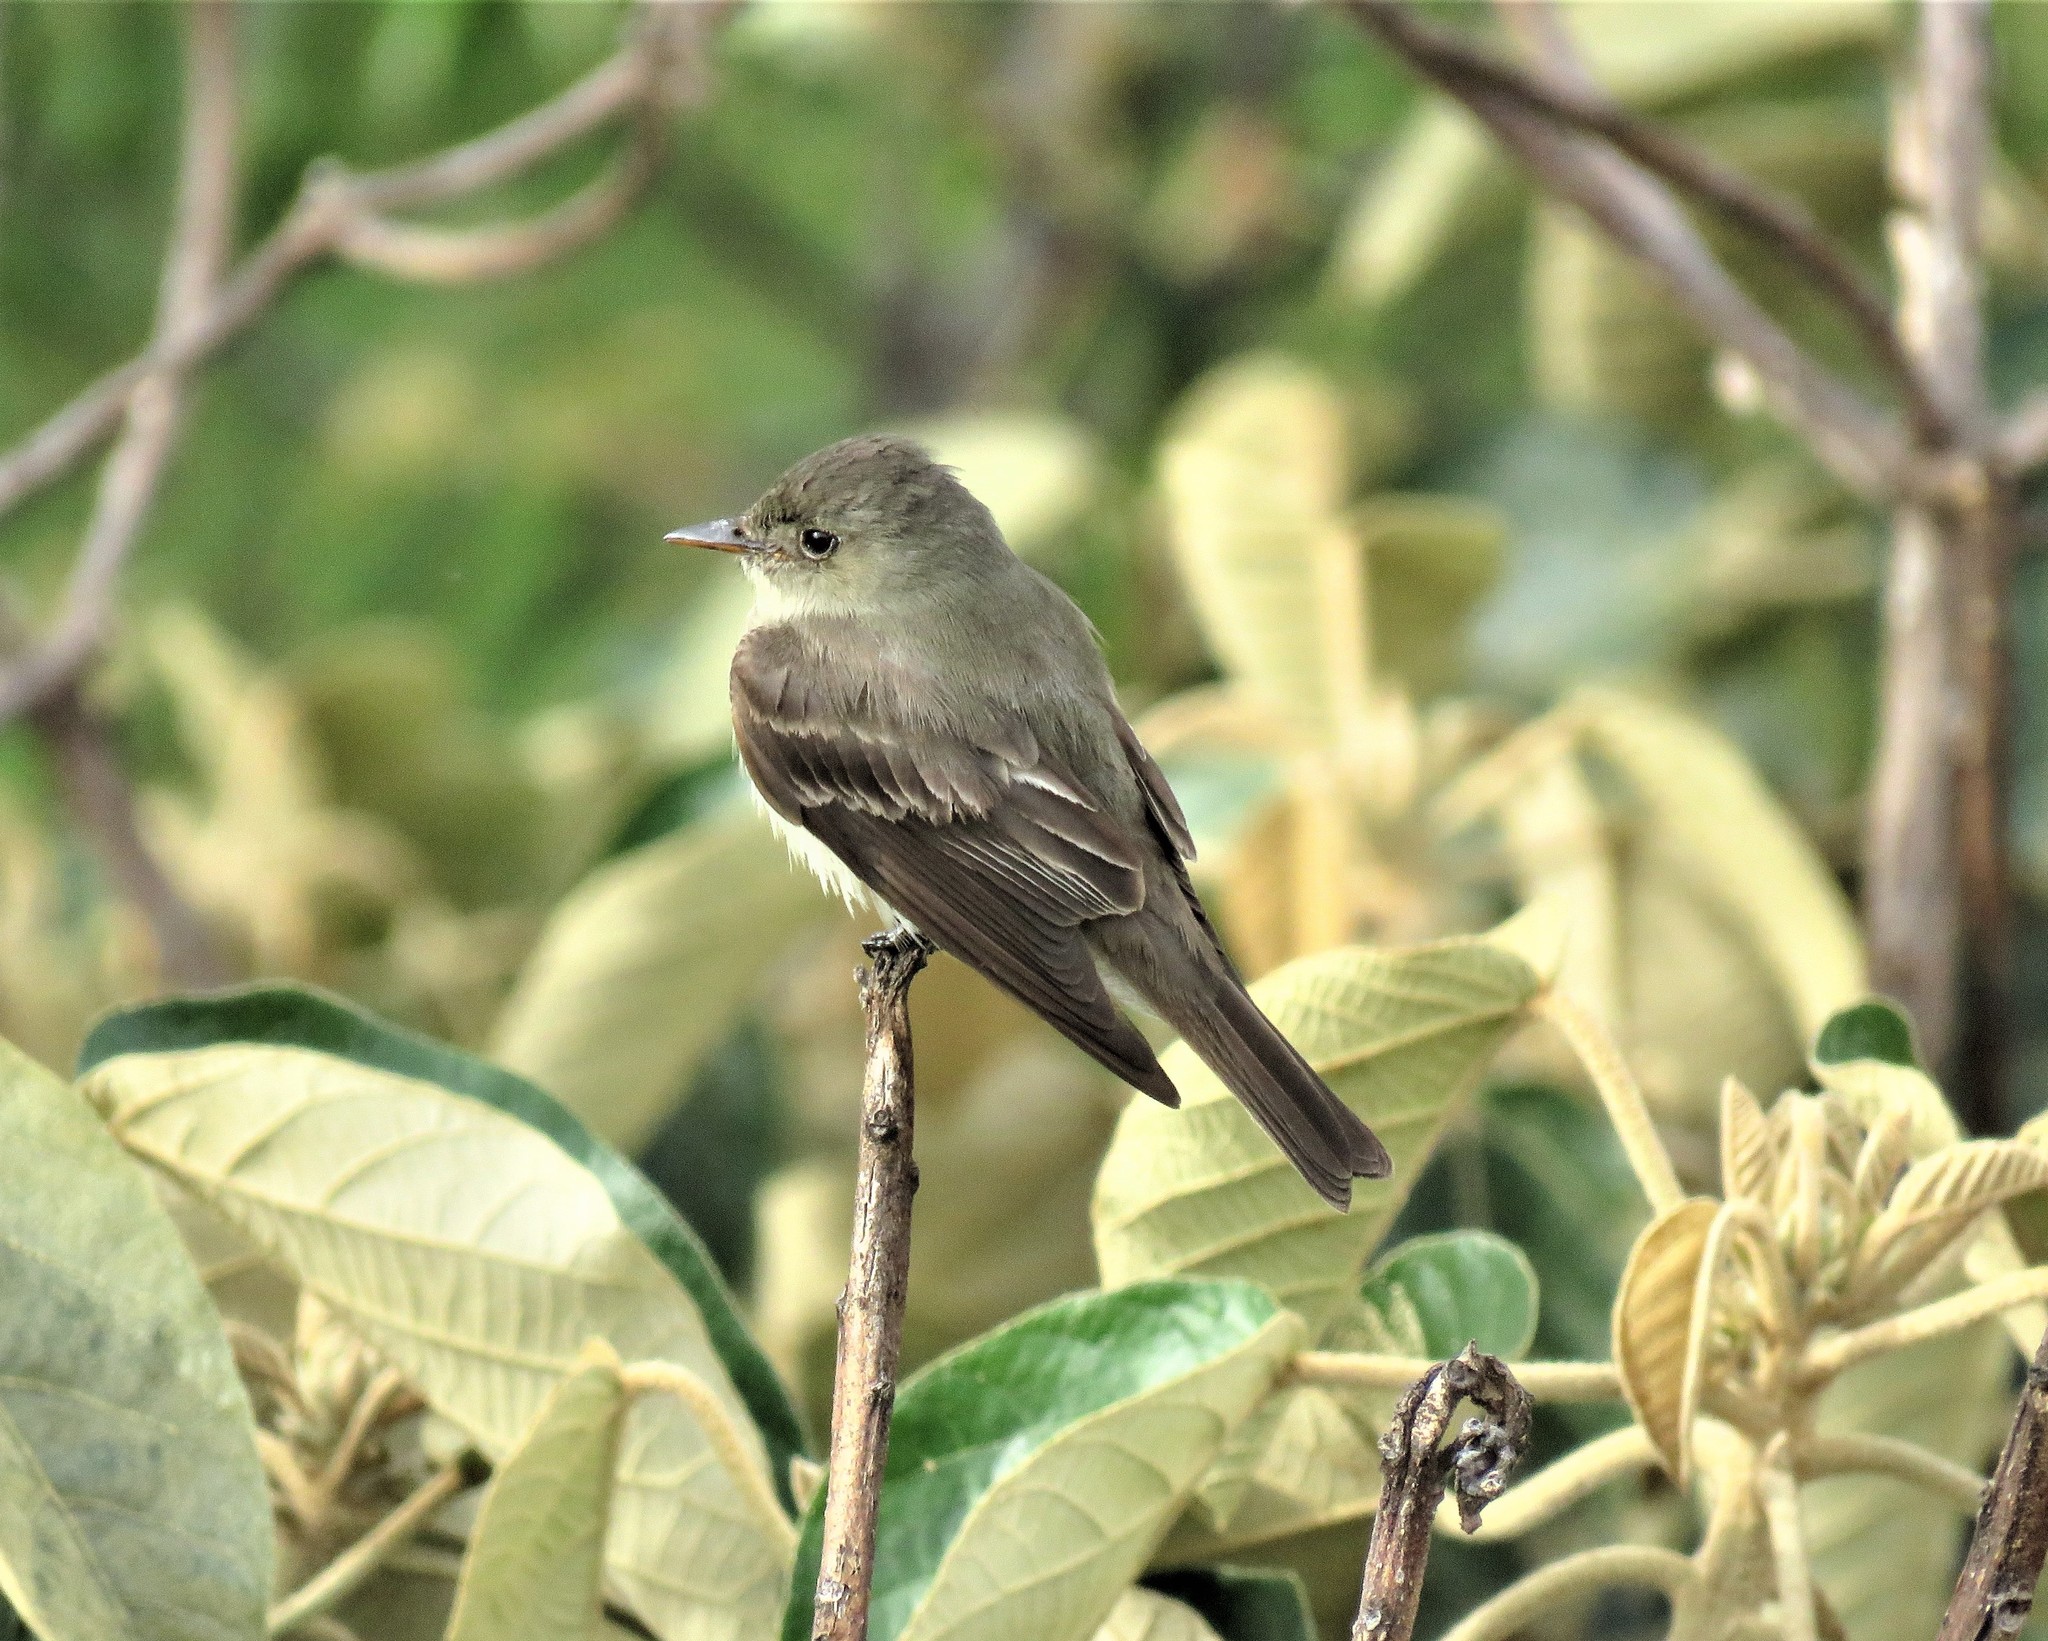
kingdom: Animalia
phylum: Chordata
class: Aves
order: Passeriformes
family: Tyrannidae
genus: Contopus
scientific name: Contopus virens
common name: Eastern wood-pewee
